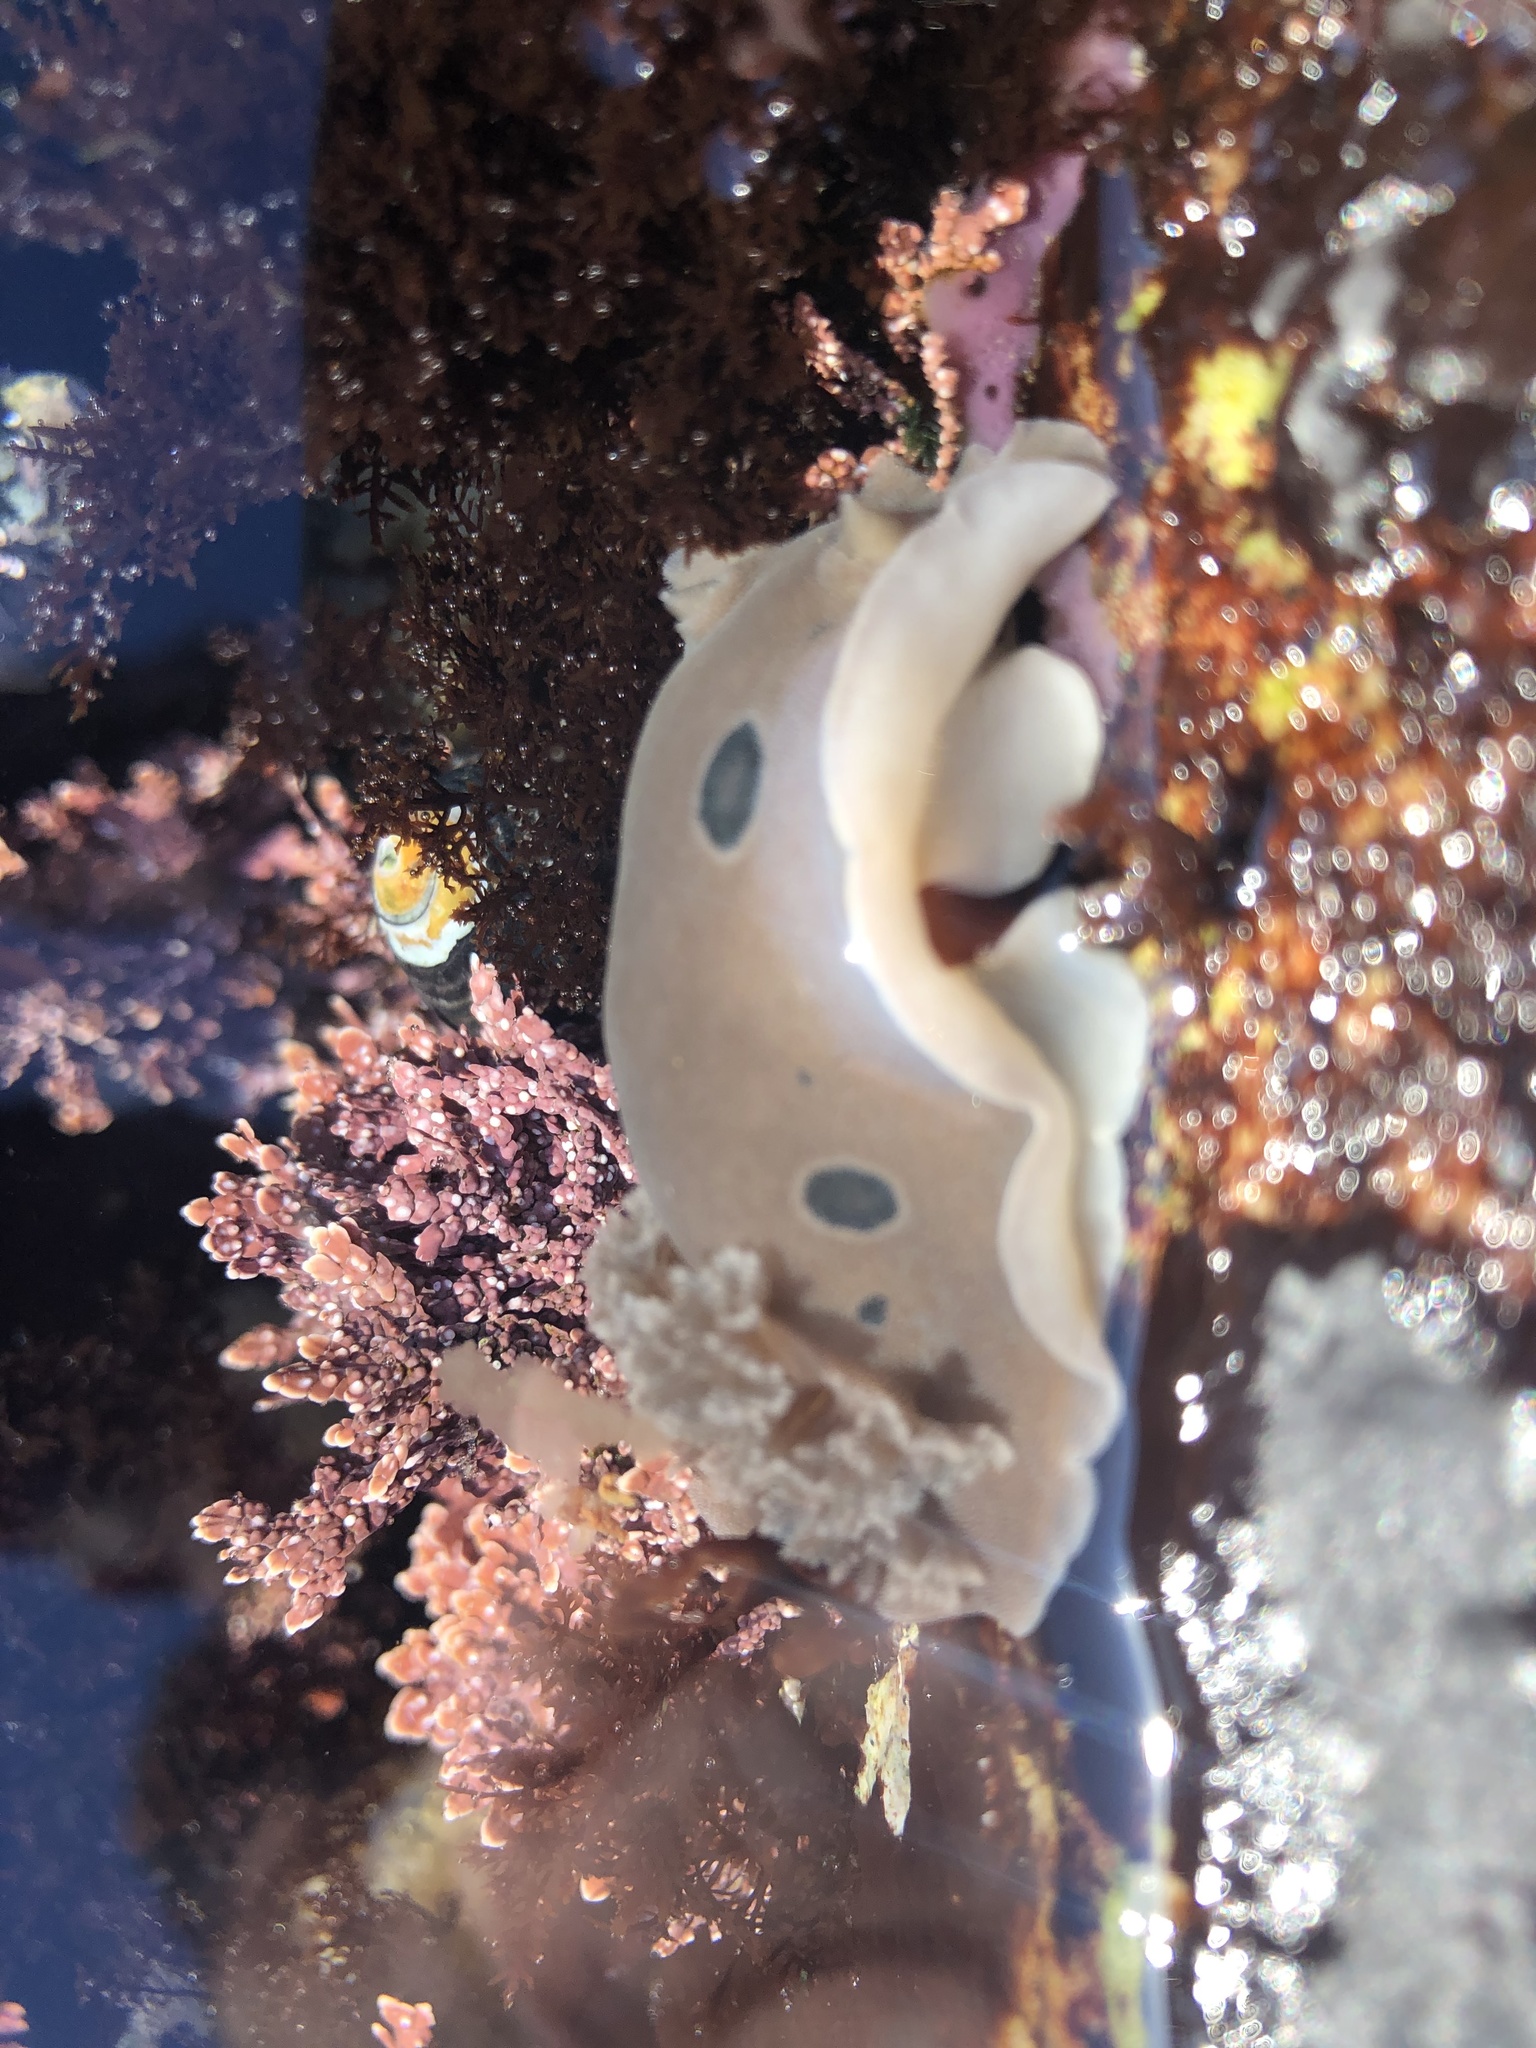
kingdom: Animalia
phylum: Mollusca
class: Gastropoda
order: Nudibranchia
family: Discodorididae
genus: Diaulula
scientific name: Diaulula sandiegensis
